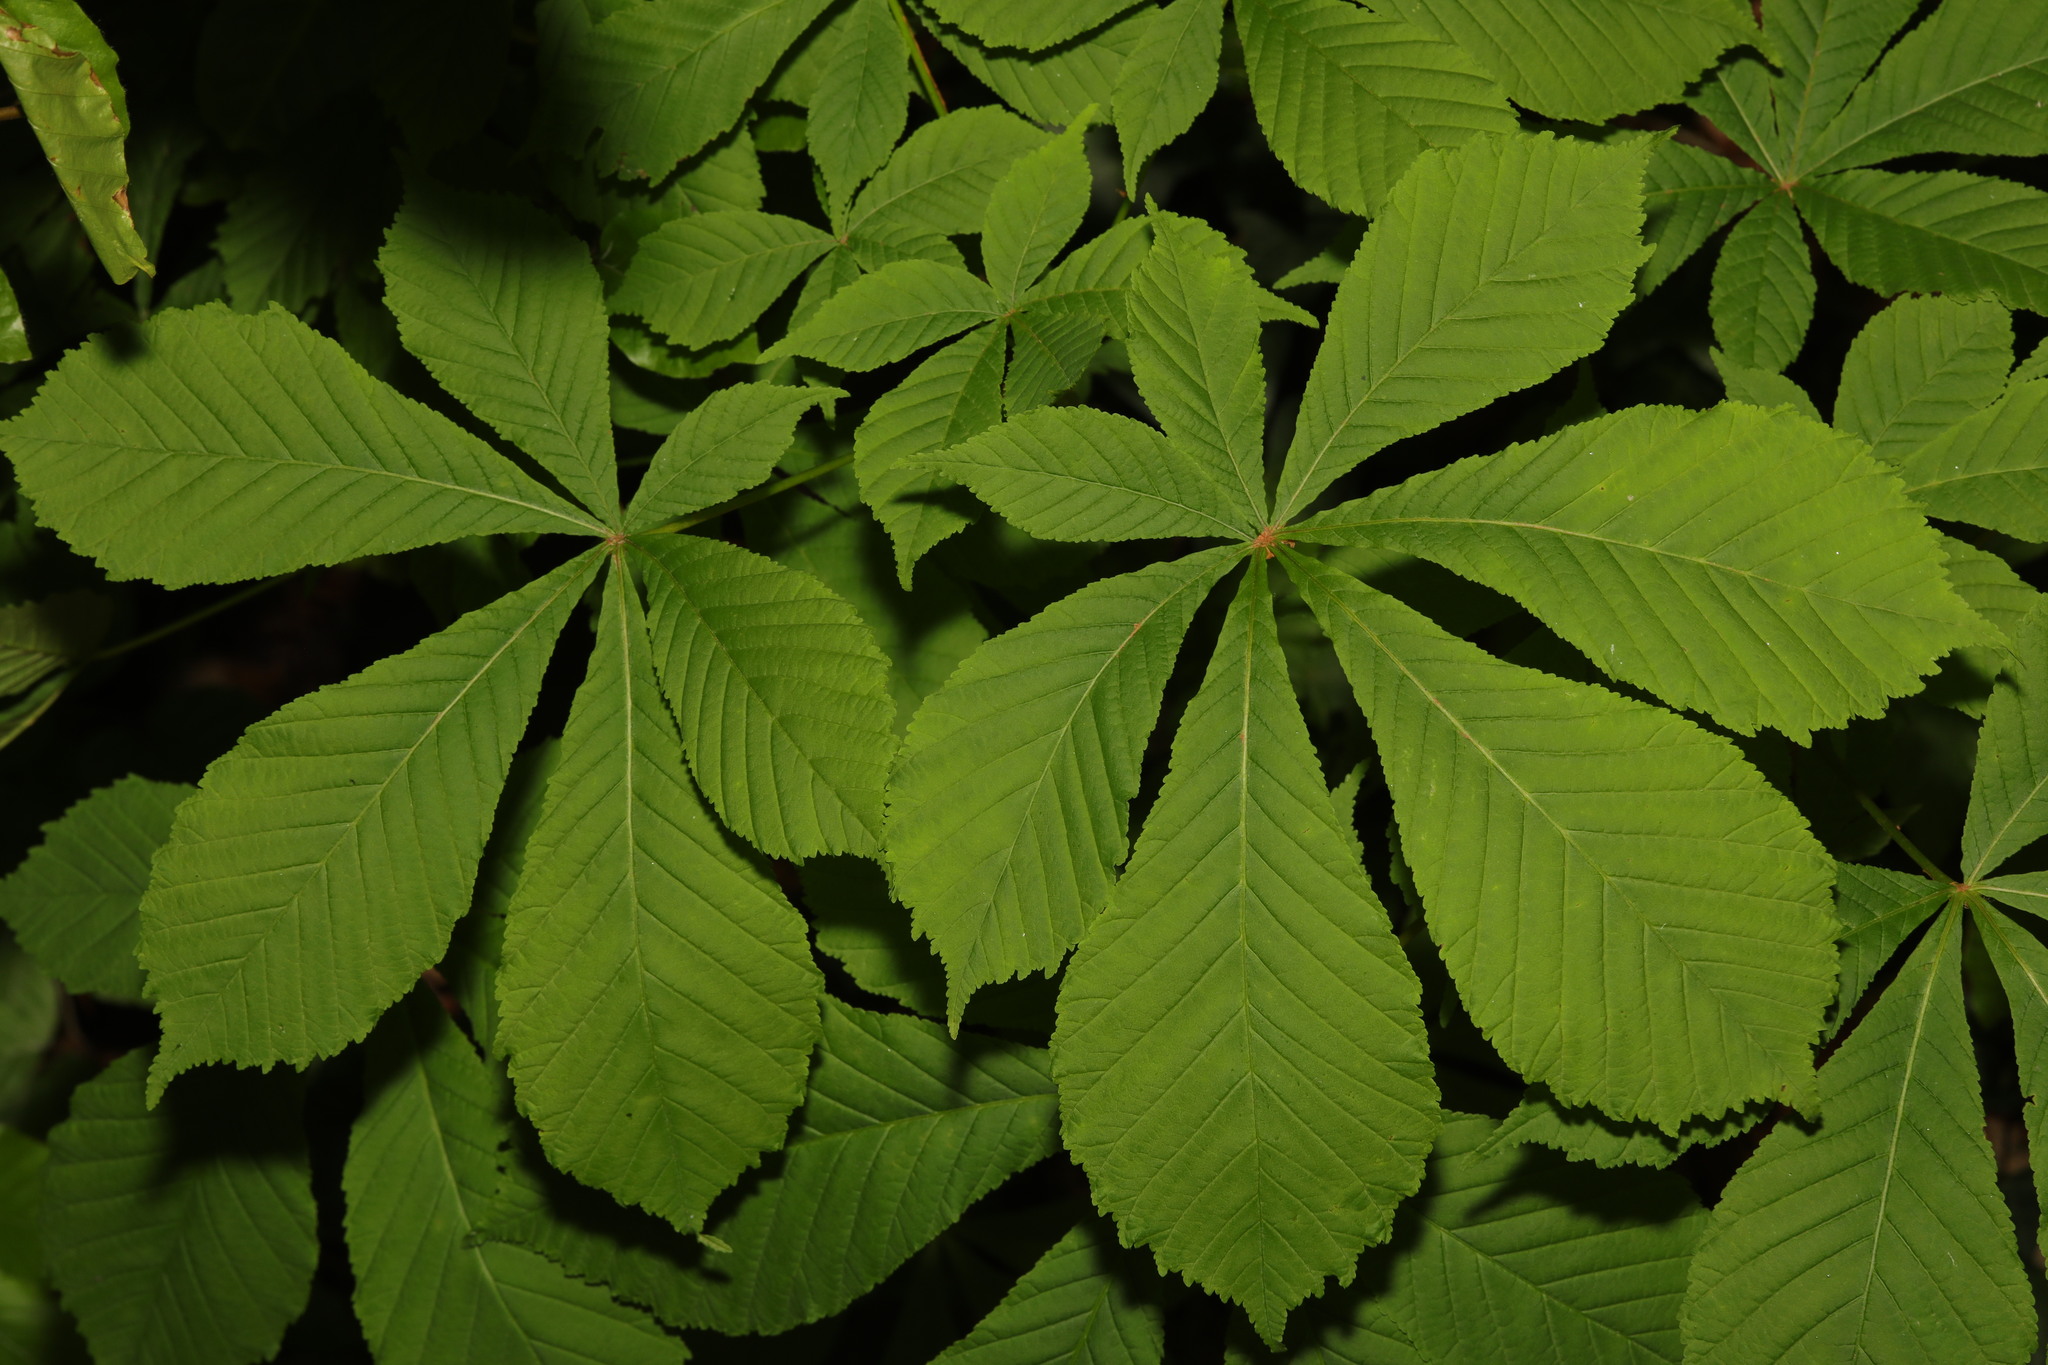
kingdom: Plantae
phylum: Tracheophyta
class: Magnoliopsida
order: Sapindales
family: Sapindaceae
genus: Aesculus
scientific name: Aesculus hippocastanum
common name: Horse-chestnut
